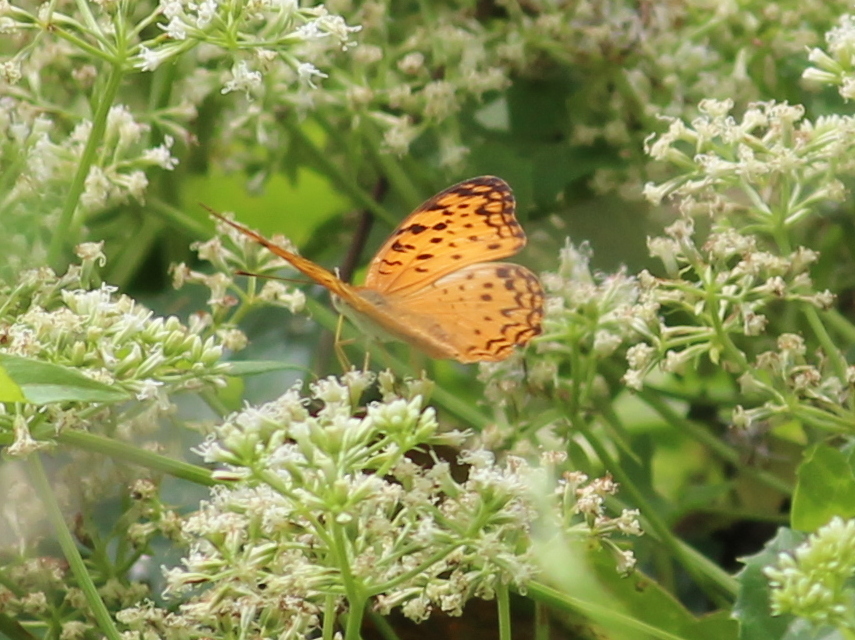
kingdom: Animalia
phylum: Arthropoda
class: Insecta
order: Lepidoptera
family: Nymphalidae
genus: Phalanta
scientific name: Phalanta phalantha
